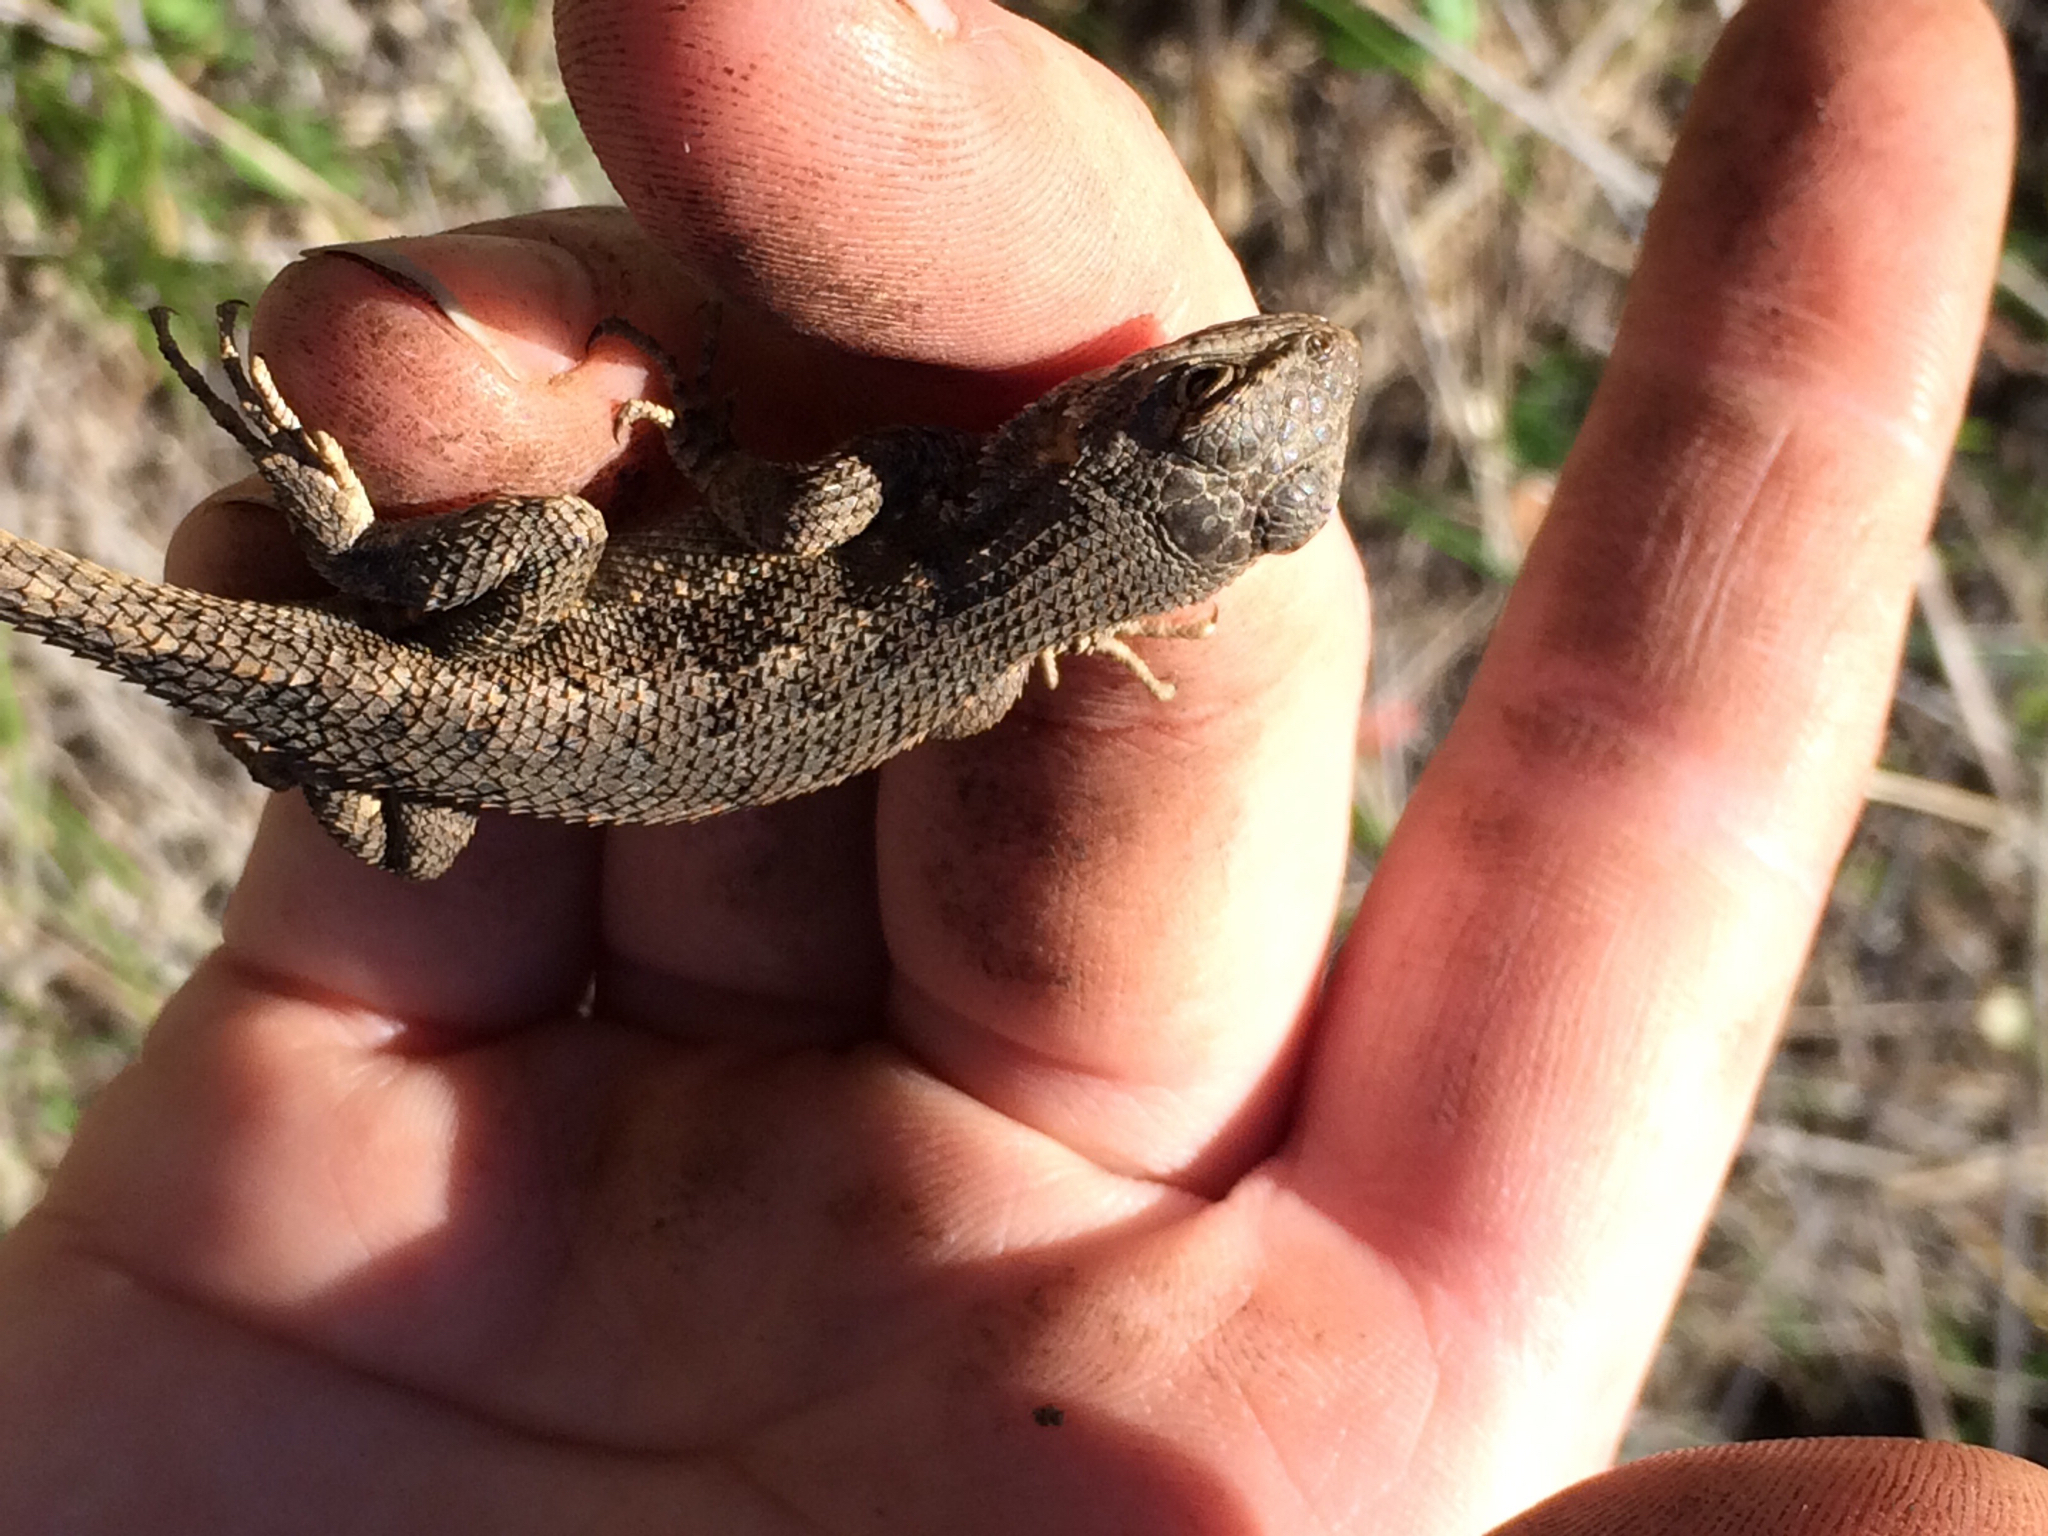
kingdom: Animalia
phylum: Chordata
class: Squamata
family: Phrynosomatidae
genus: Sceloporus
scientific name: Sceloporus occidentalis
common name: Western fence lizard
